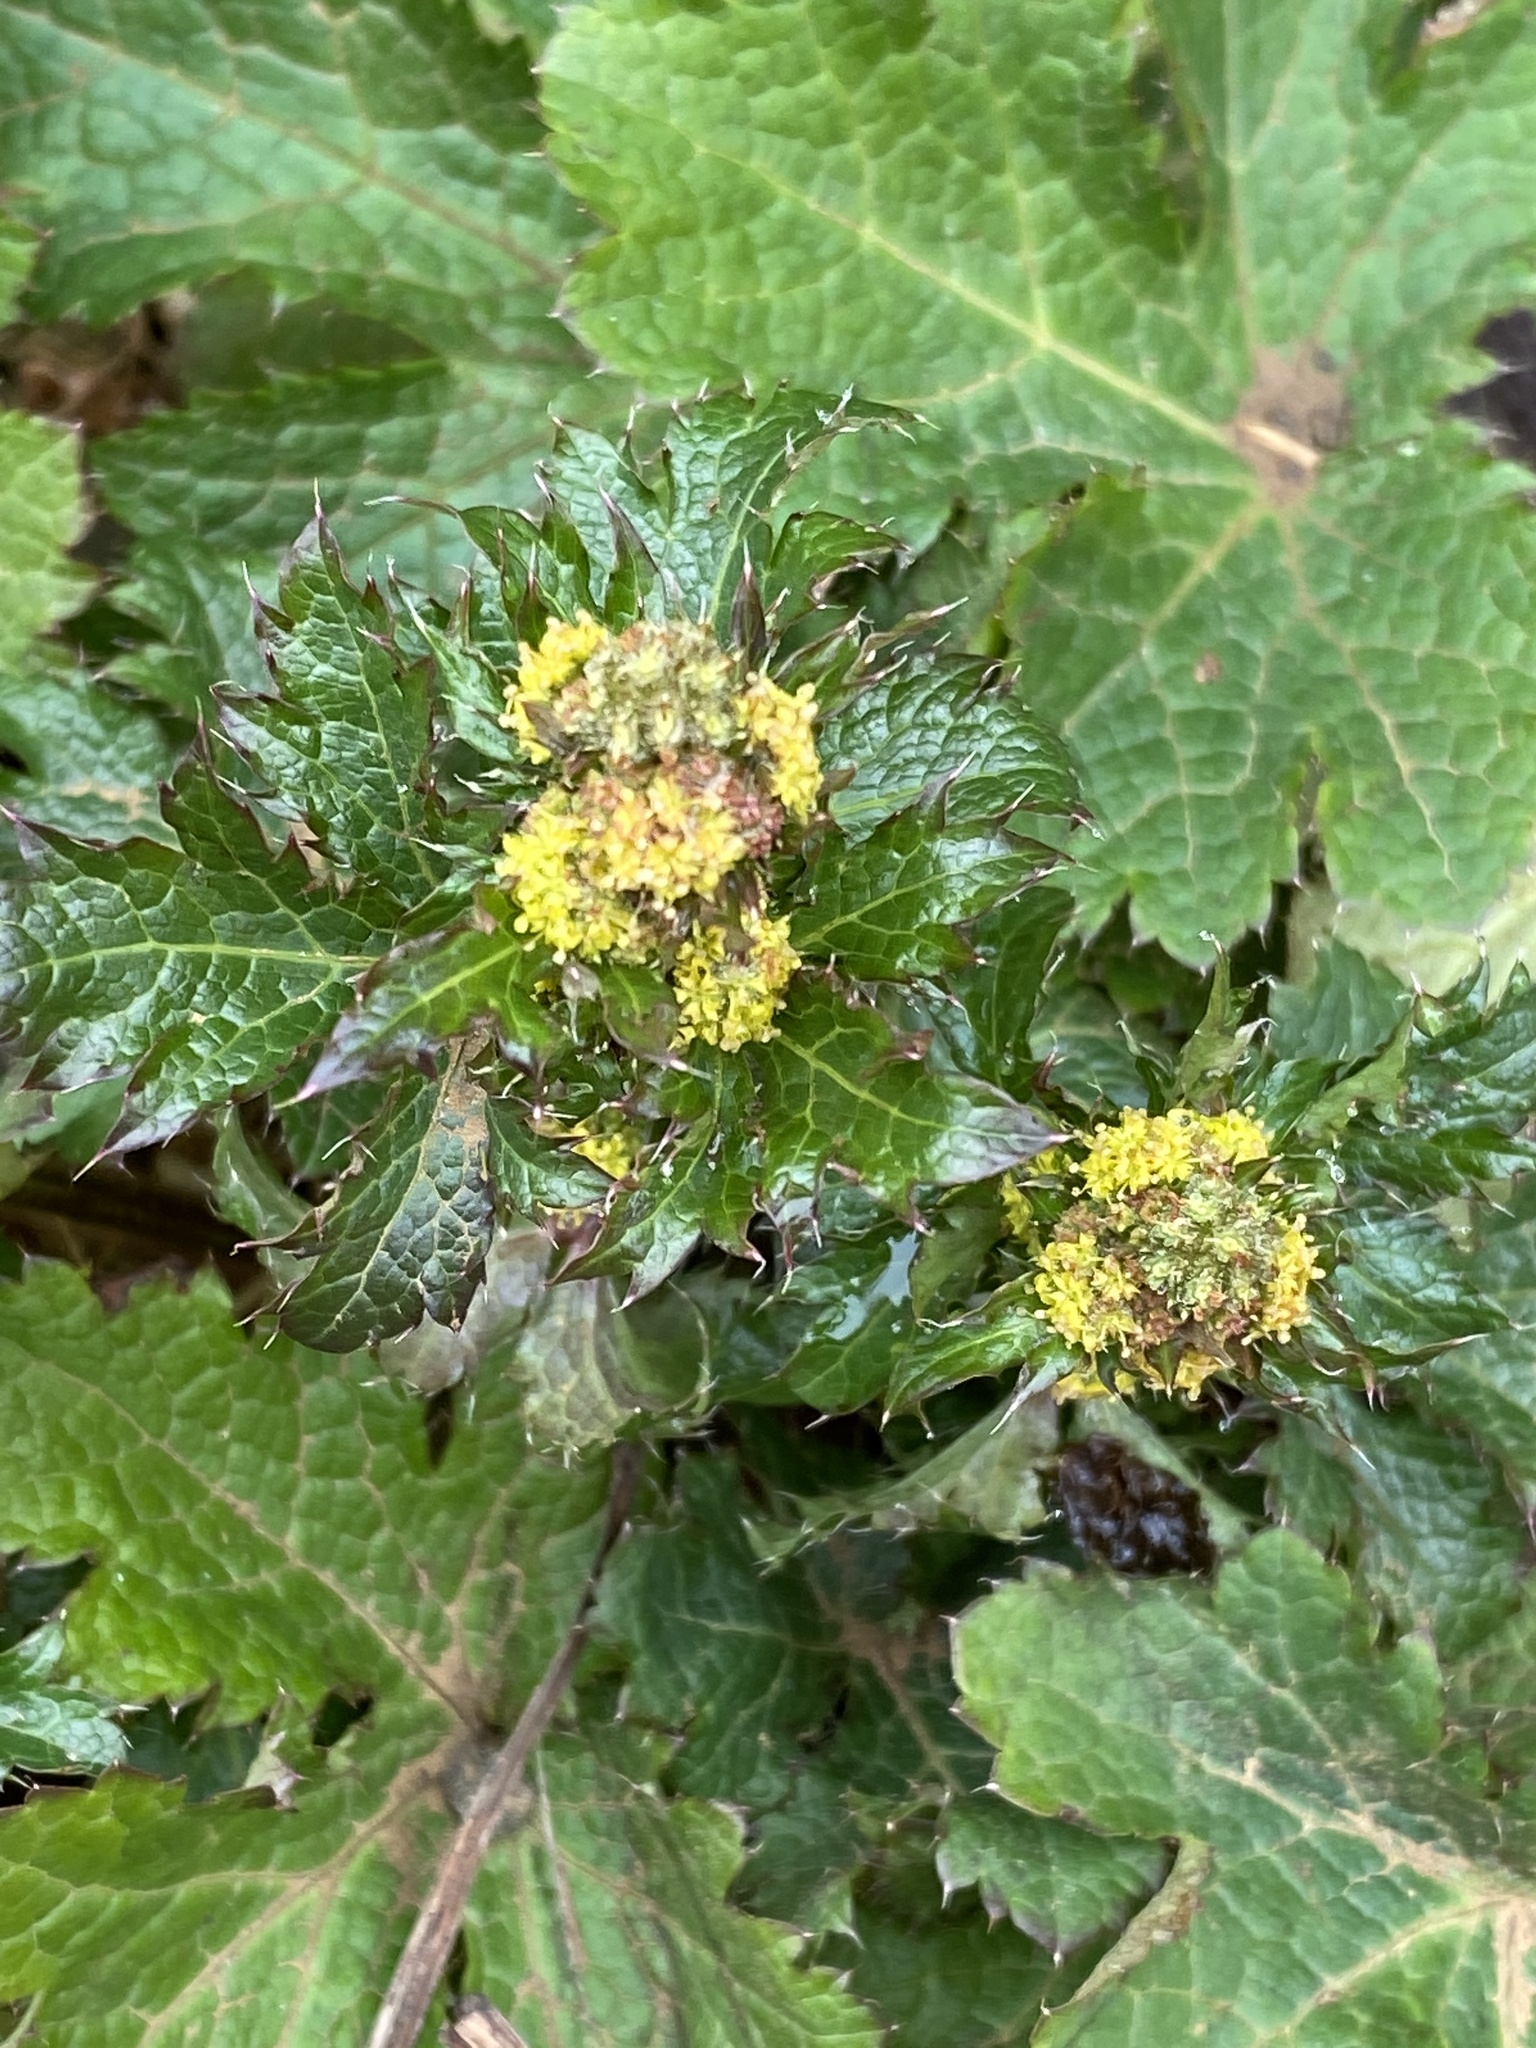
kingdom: Plantae
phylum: Tracheophyta
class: Magnoliopsida
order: Apiales
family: Apiaceae
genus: Sanicula
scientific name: Sanicula crassicaulis
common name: Western snakeroot
